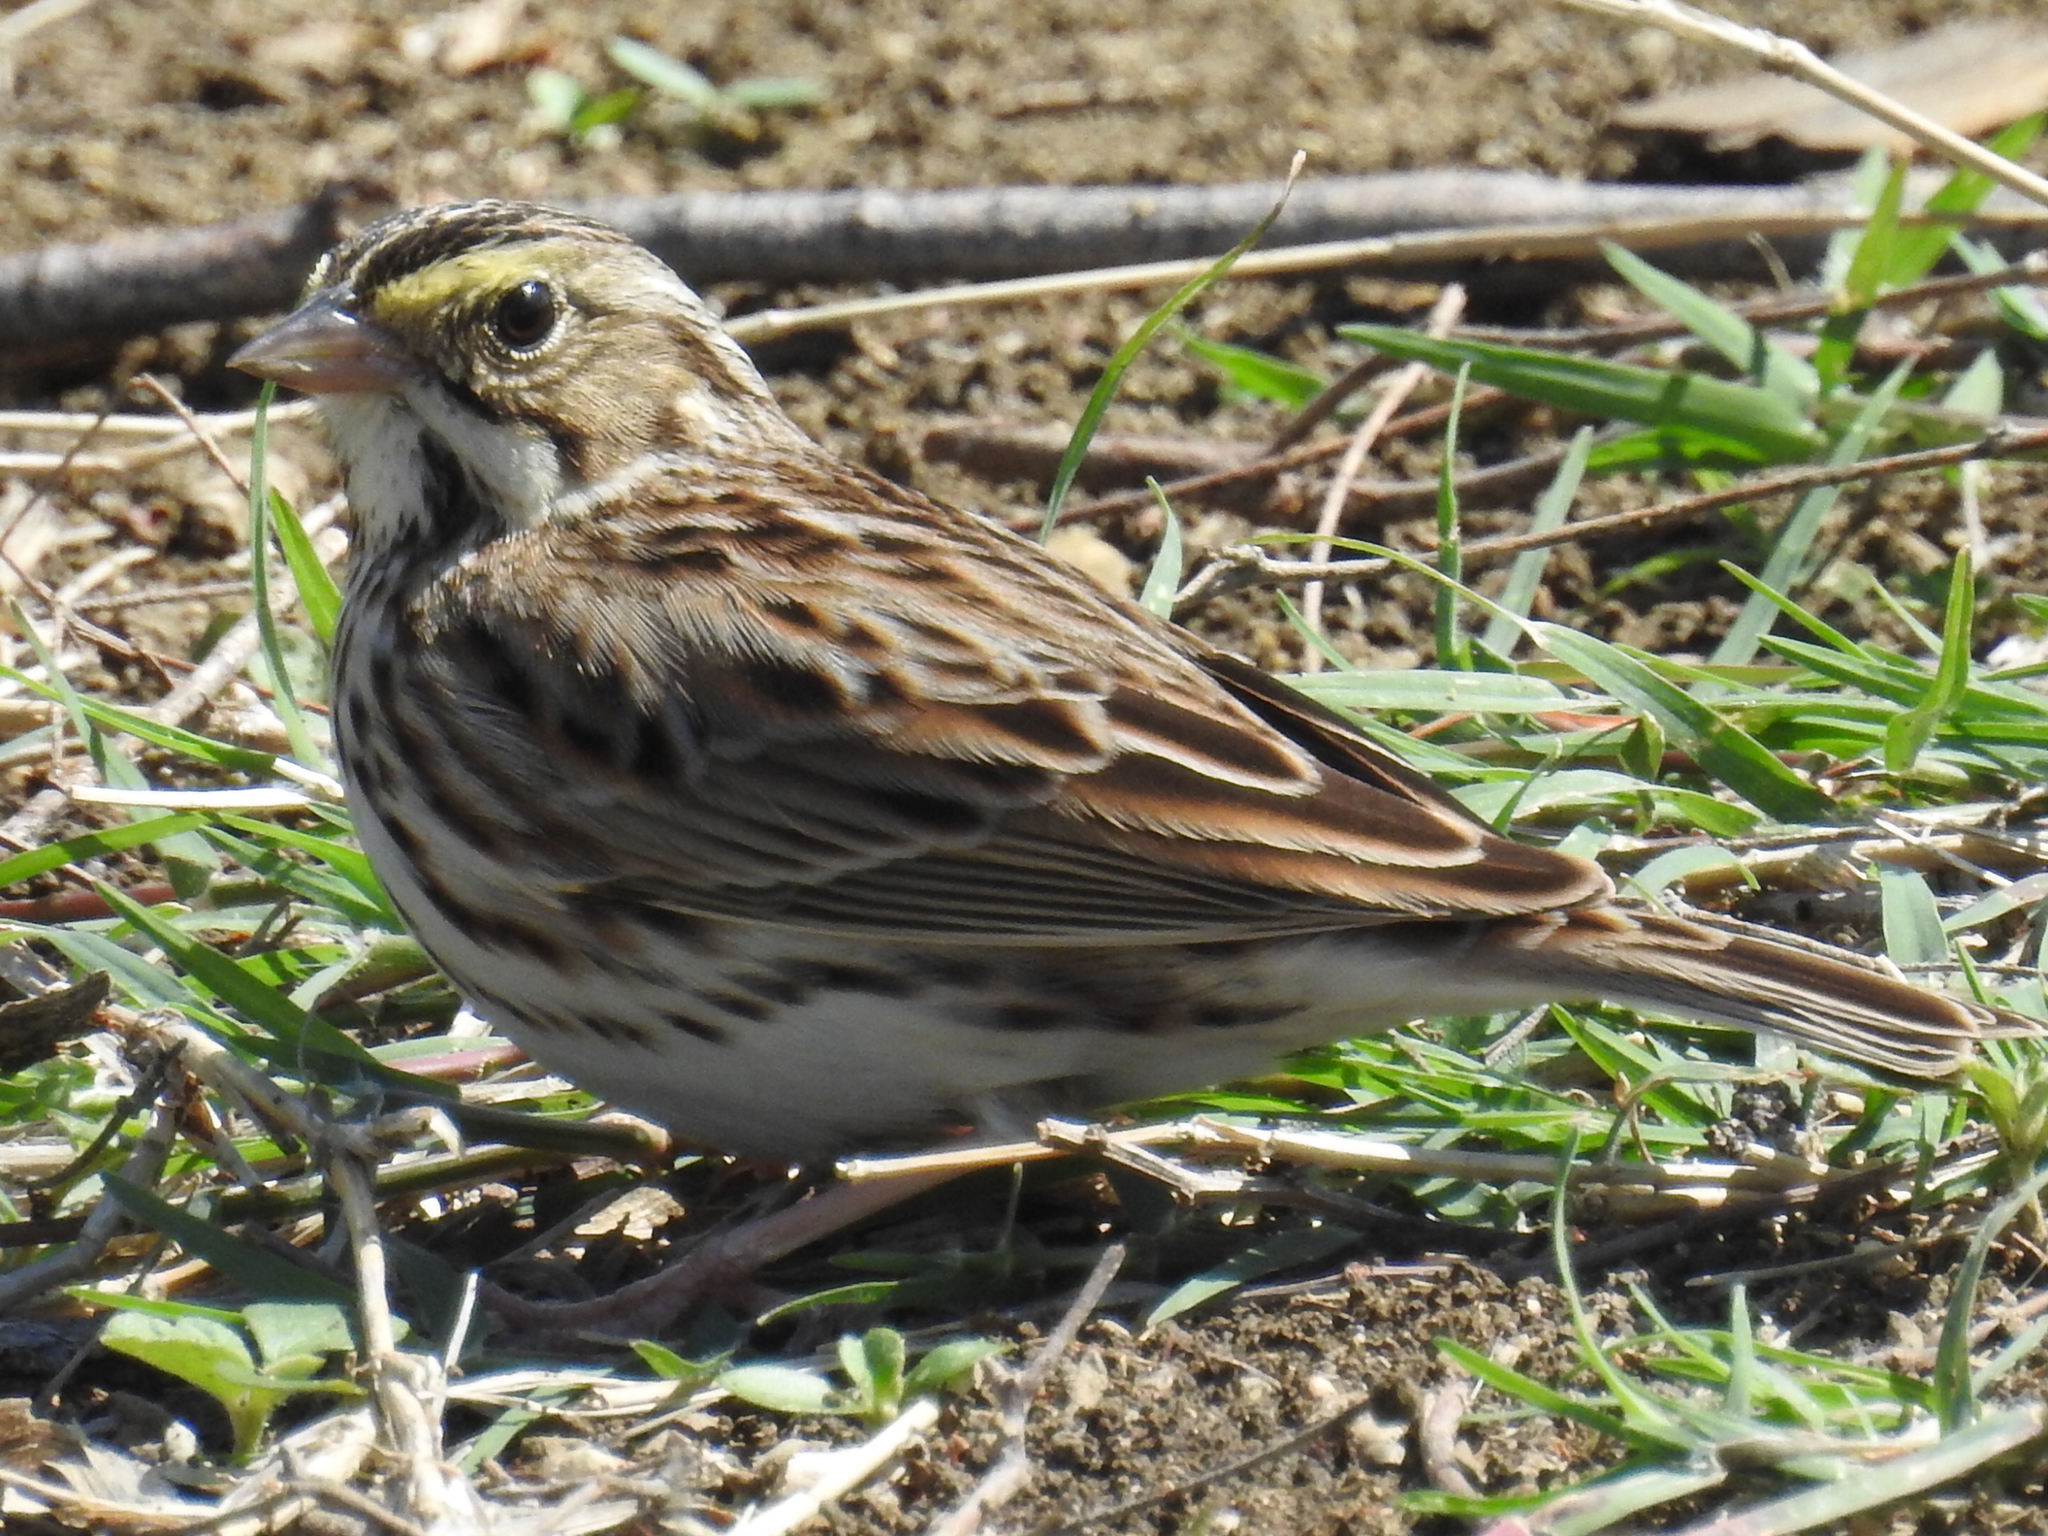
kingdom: Animalia
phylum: Chordata
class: Aves
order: Passeriformes
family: Passerellidae
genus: Passerculus
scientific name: Passerculus sandwichensis
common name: Savannah sparrow
